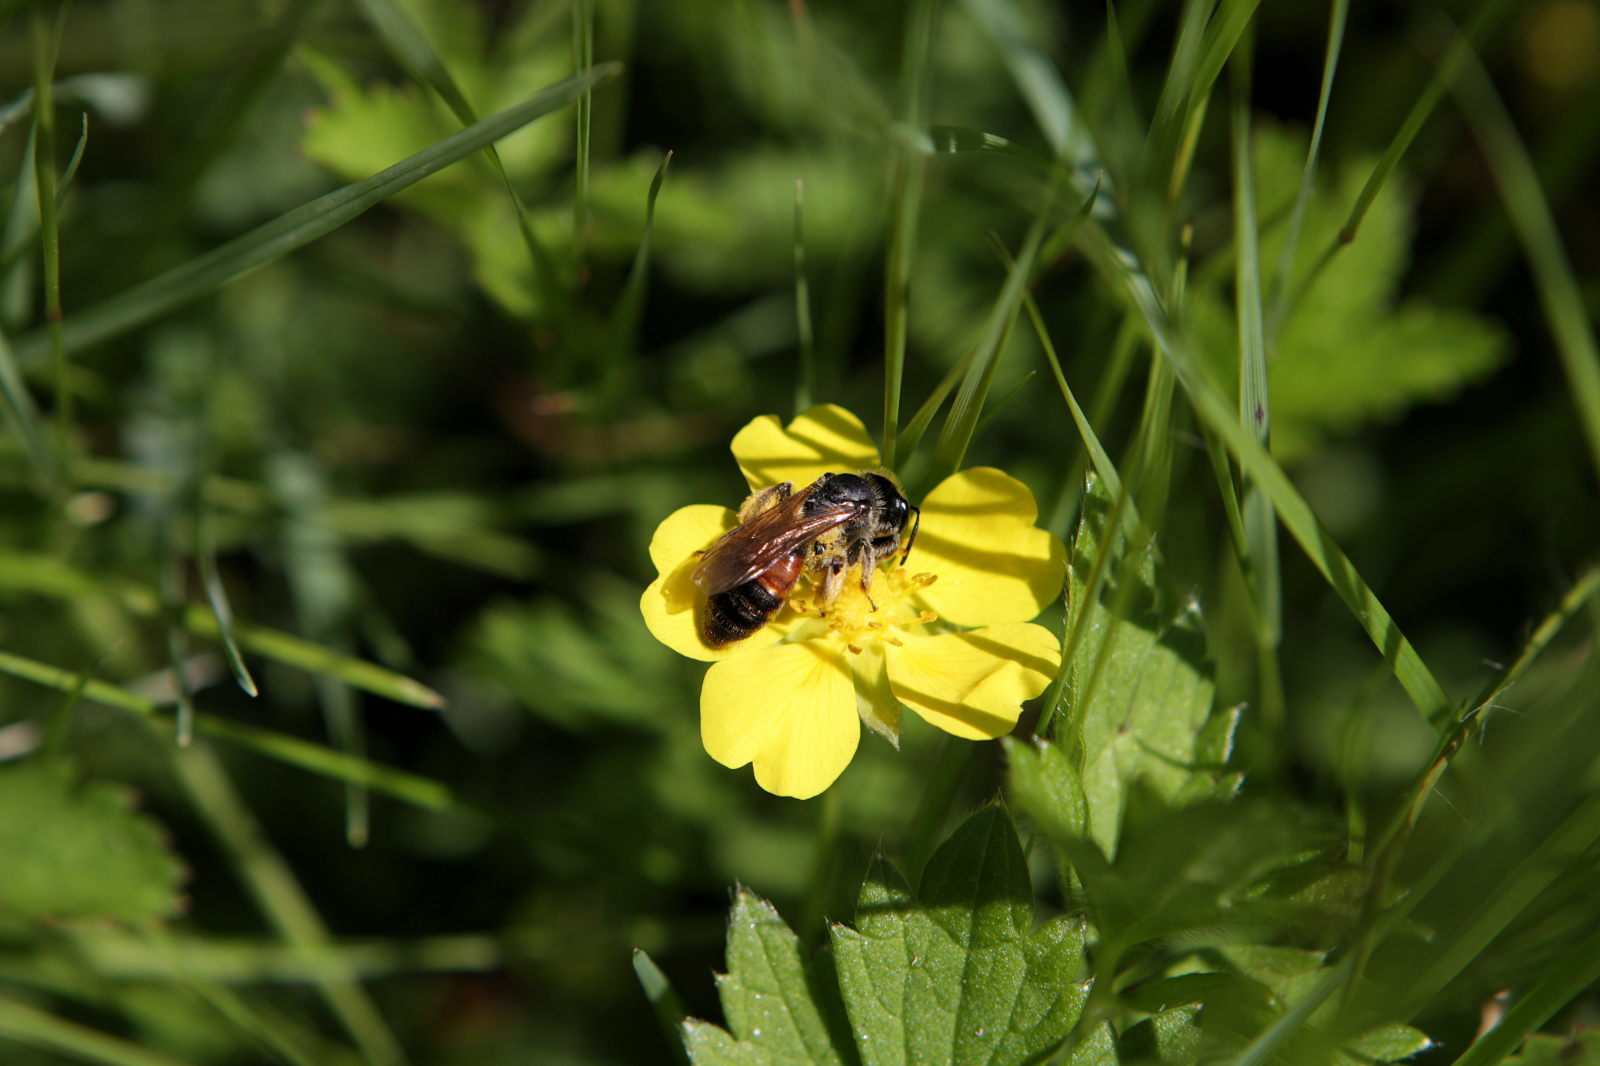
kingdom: Animalia
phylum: Arthropoda
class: Insecta
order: Hymenoptera
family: Andrenidae
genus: Andrena
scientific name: Andrena labiata
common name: Red-girdled mining bee
